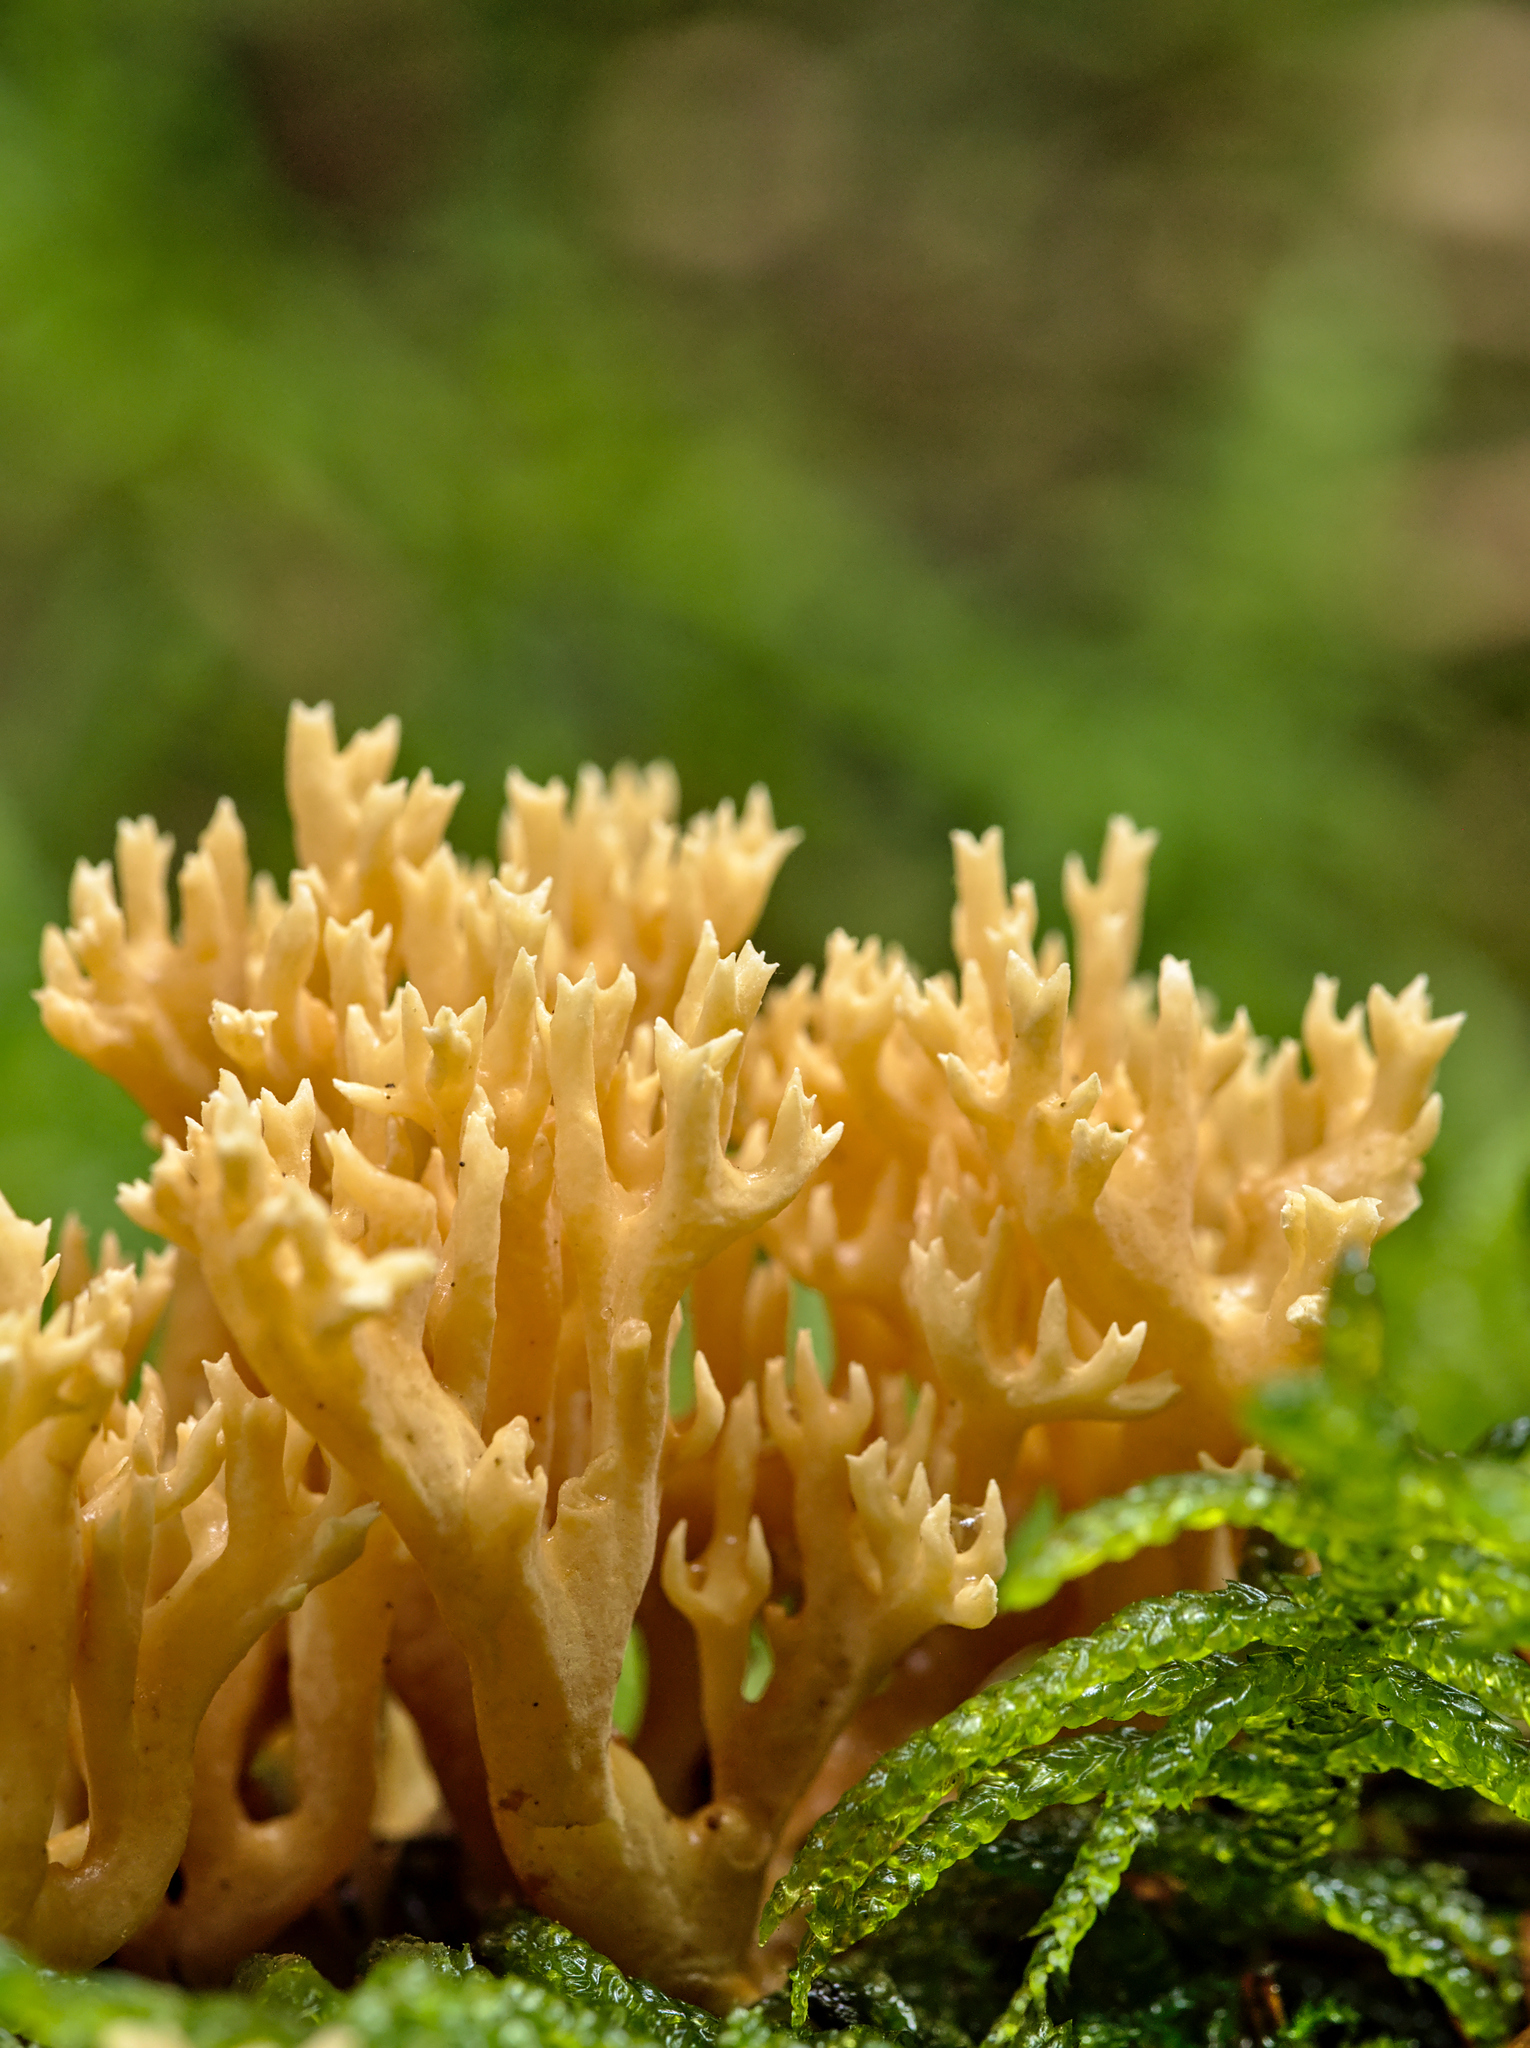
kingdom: Fungi
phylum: Basidiomycota
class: Agaricomycetes
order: Gomphales
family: Gomphaceae
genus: Ramaria
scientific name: Ramaria
